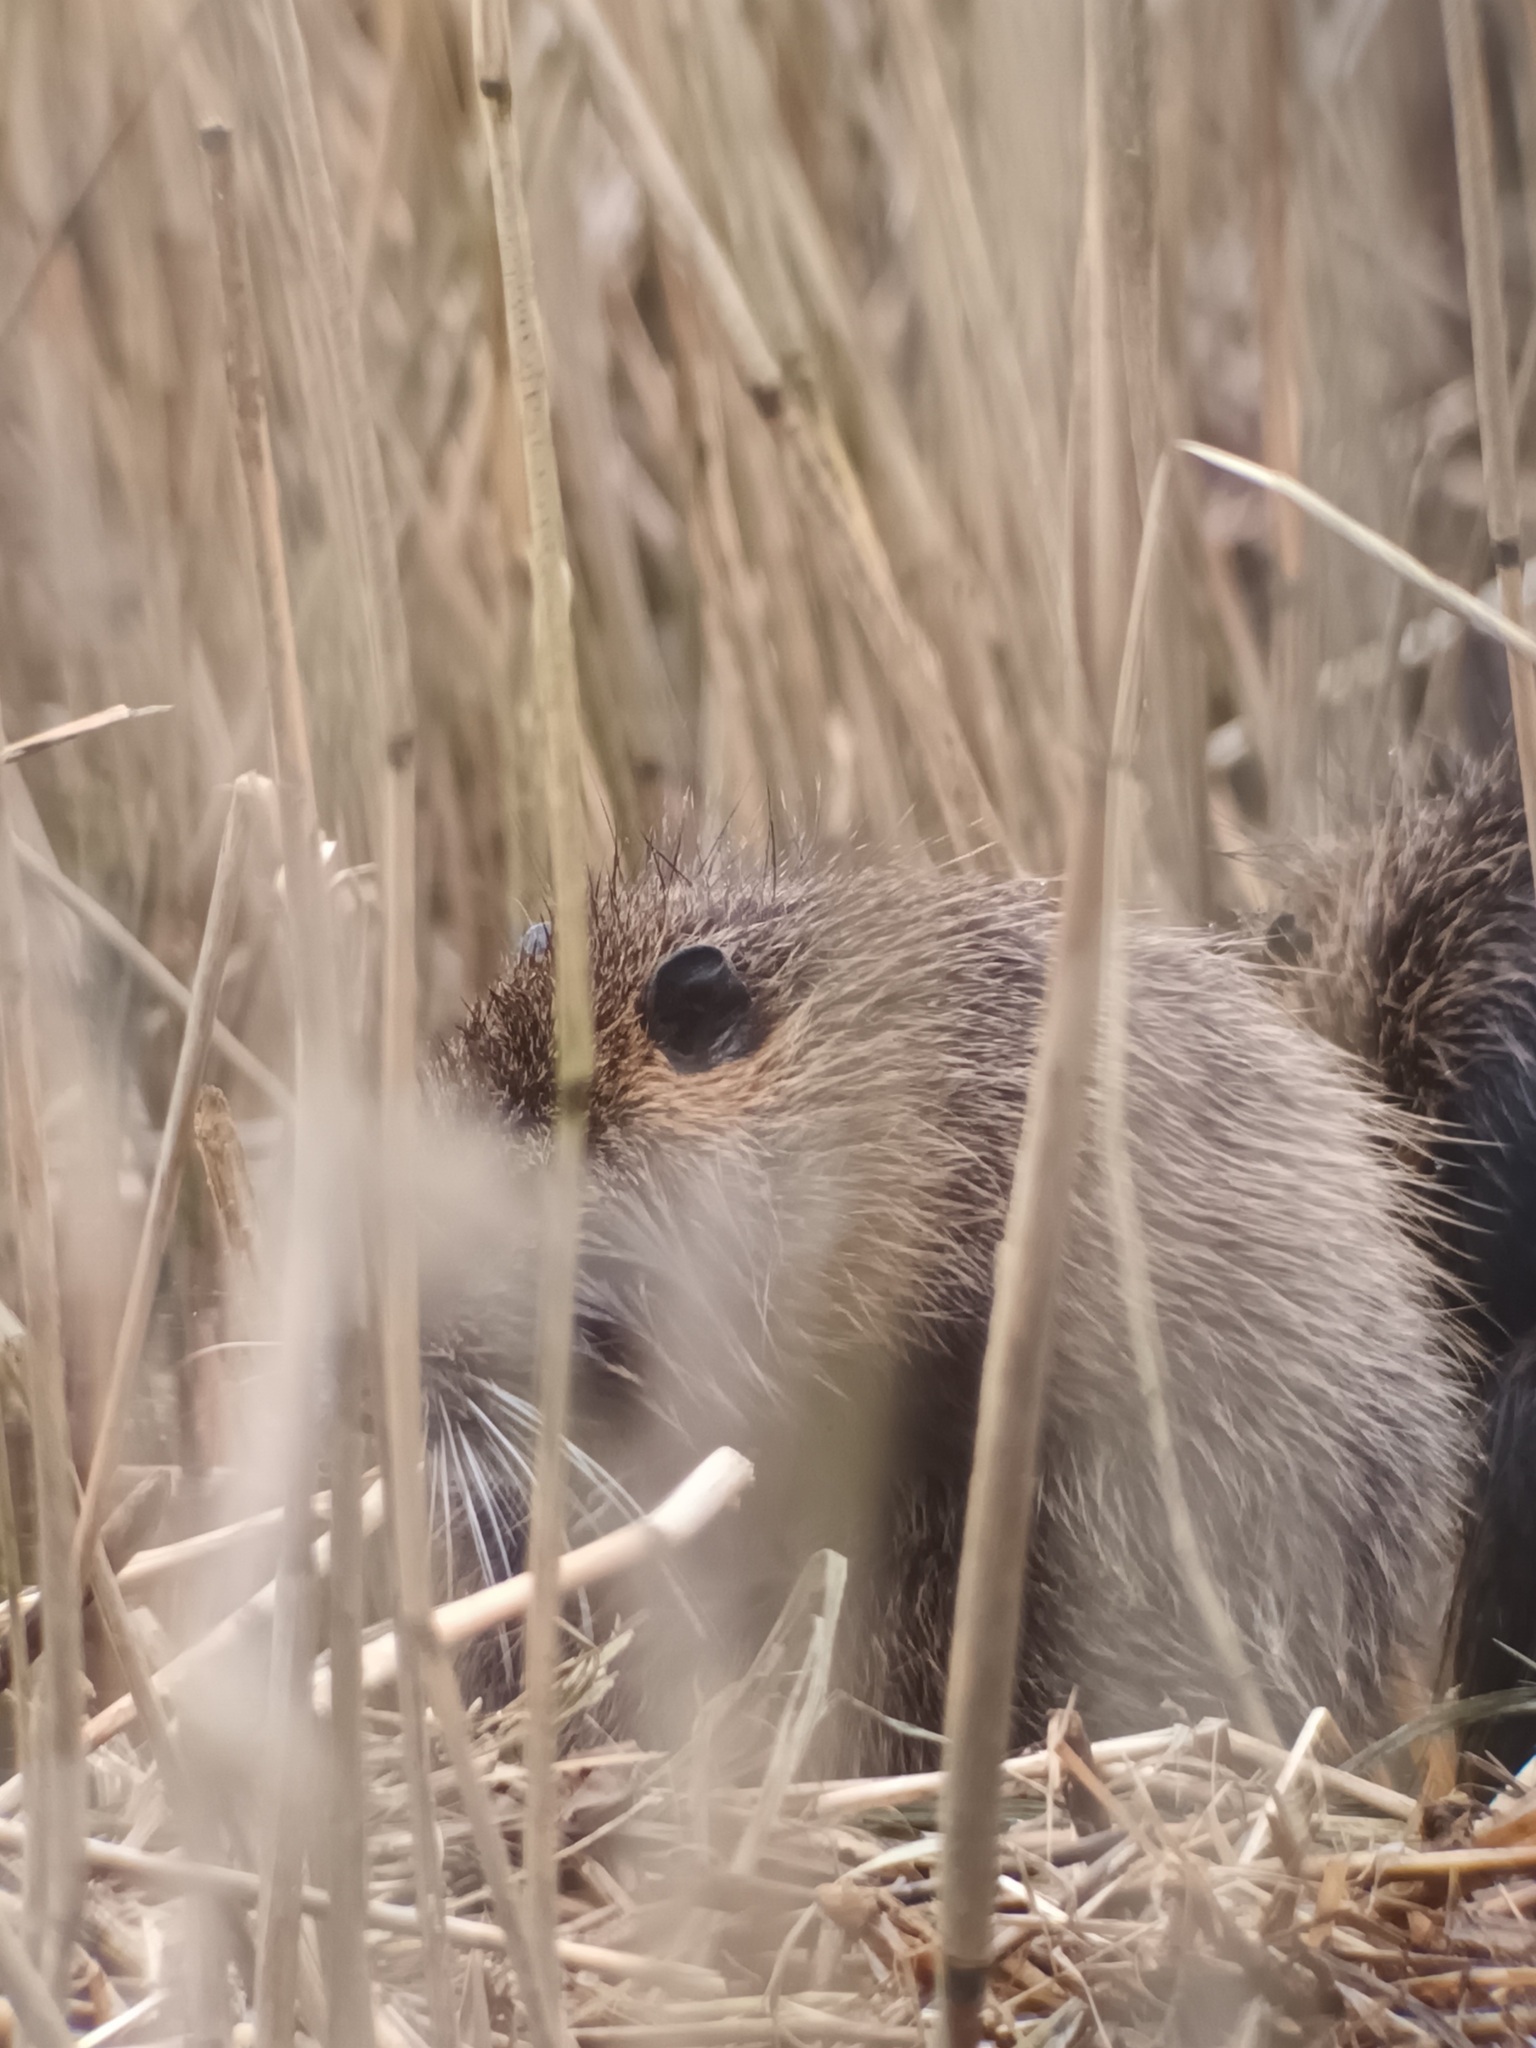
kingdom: Animalia
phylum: Chordata
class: Mammalia
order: Rodentia
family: Myocastoridae
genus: Myocastor
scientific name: Myocastor coypus
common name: Coypu
